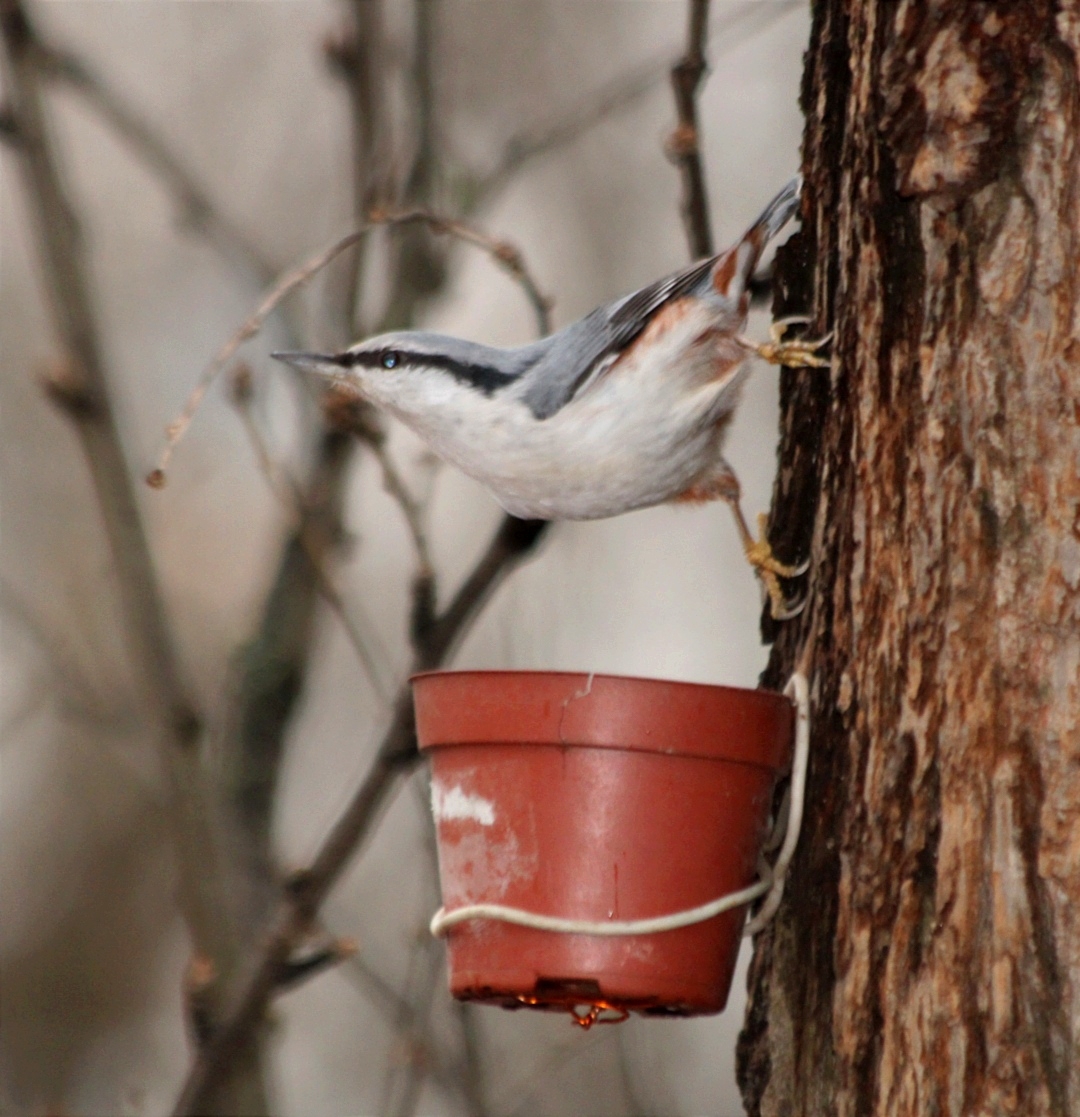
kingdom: Animalia
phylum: Chordata
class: Aves
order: Passeriformes
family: Sittidae
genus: Sitta
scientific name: Sitta europaea
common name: Eurasian nuthatch
